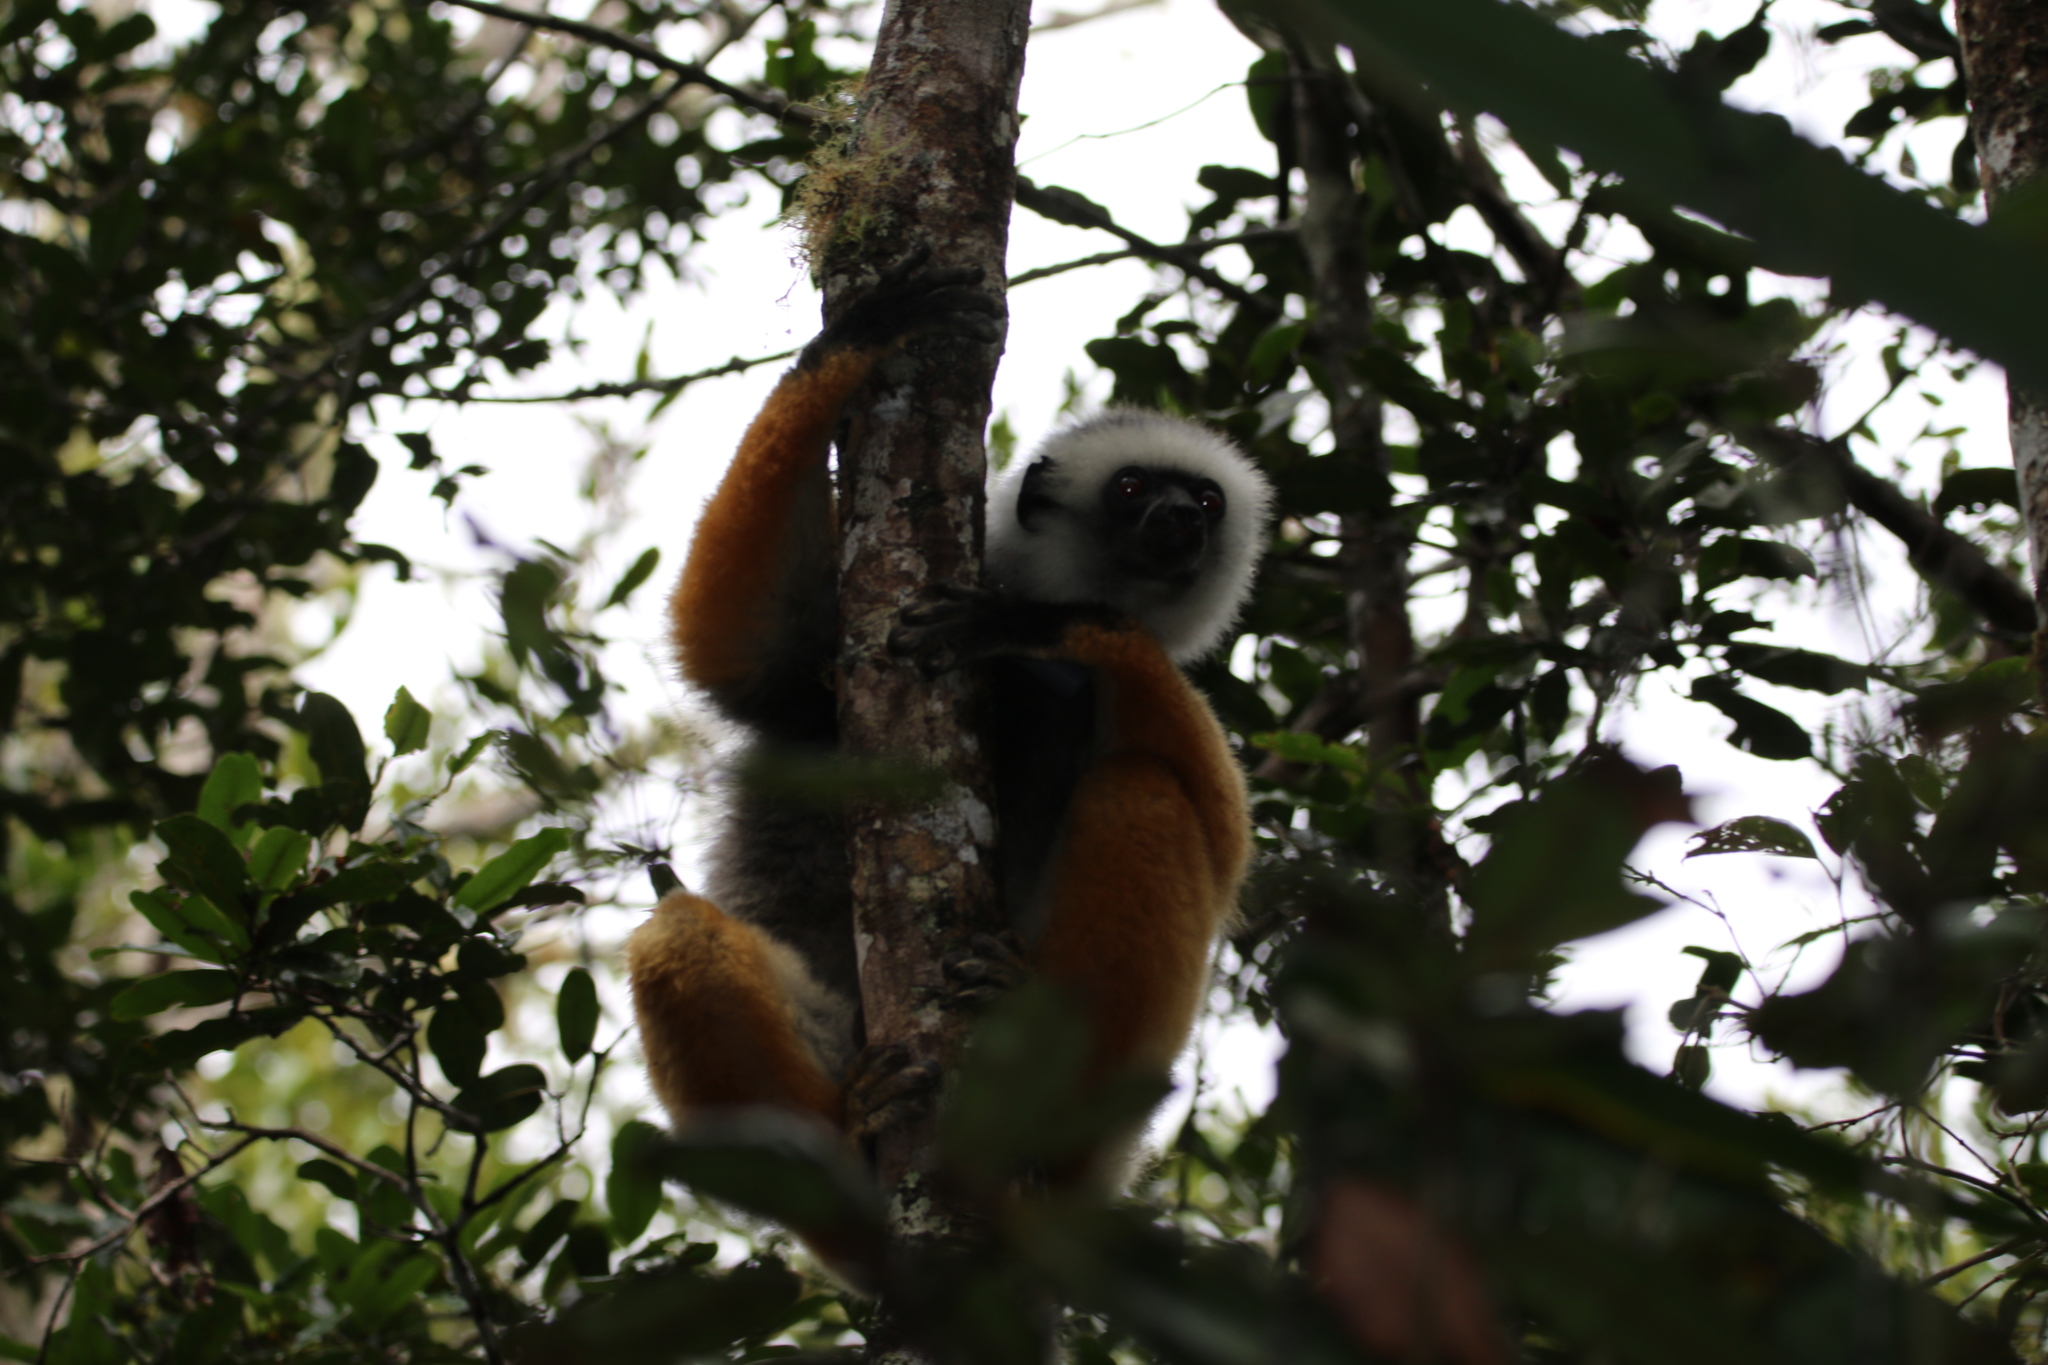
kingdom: Animalia
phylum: Chordata
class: Mammalia
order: Primates
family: Indriidae
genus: Propithecus
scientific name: Propithecus diadema
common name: Diademed sifaka
